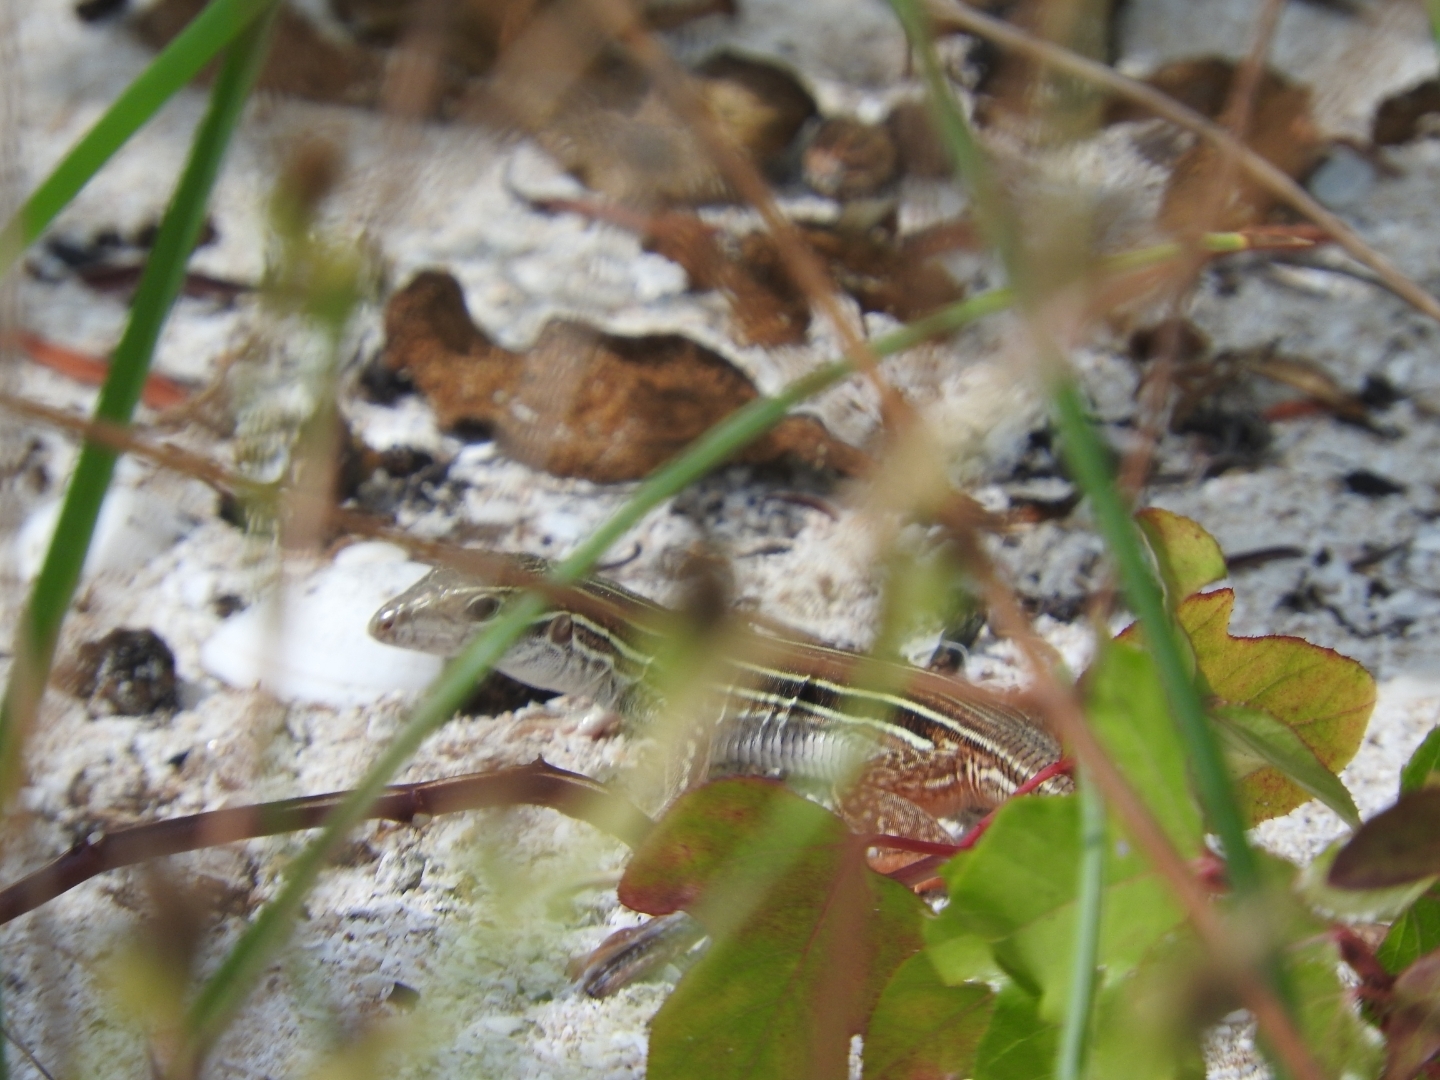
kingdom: Animalia
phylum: Chordata
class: Squamata
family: Teiidae
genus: Aspidoscelis
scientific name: Aspidoscelis angusticeps
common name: Yucatan whiptail
